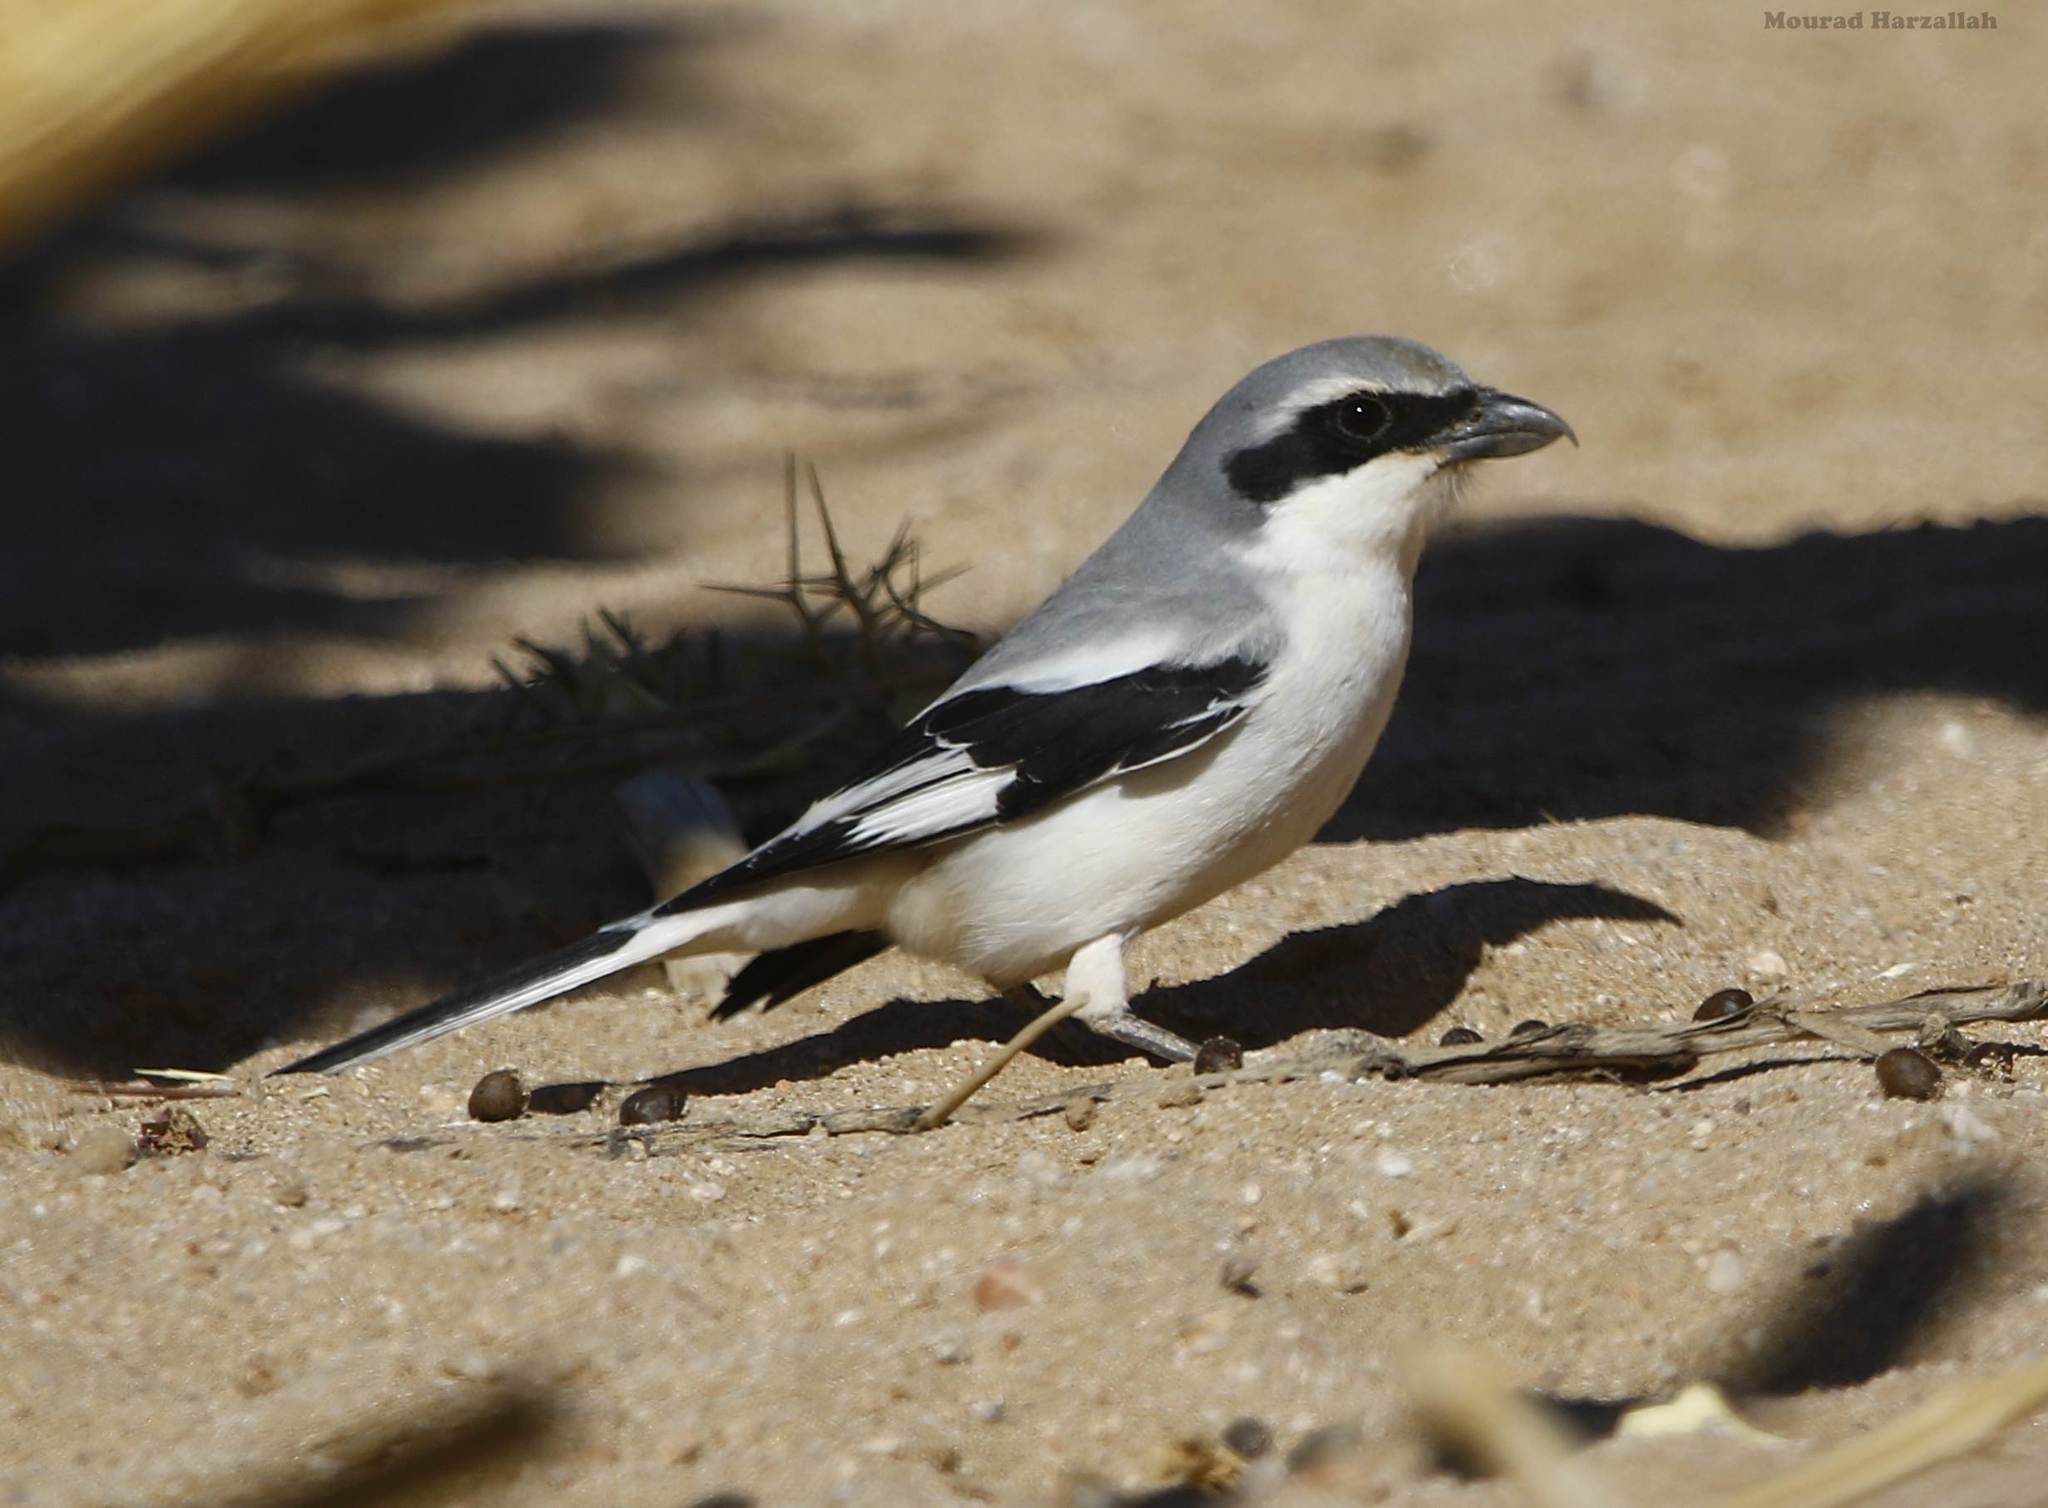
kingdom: Animalia
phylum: Chordata
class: Aves
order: Passeriformes
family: Laniidae
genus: Lanius
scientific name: Lanius excubitor
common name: Great grey shrike
